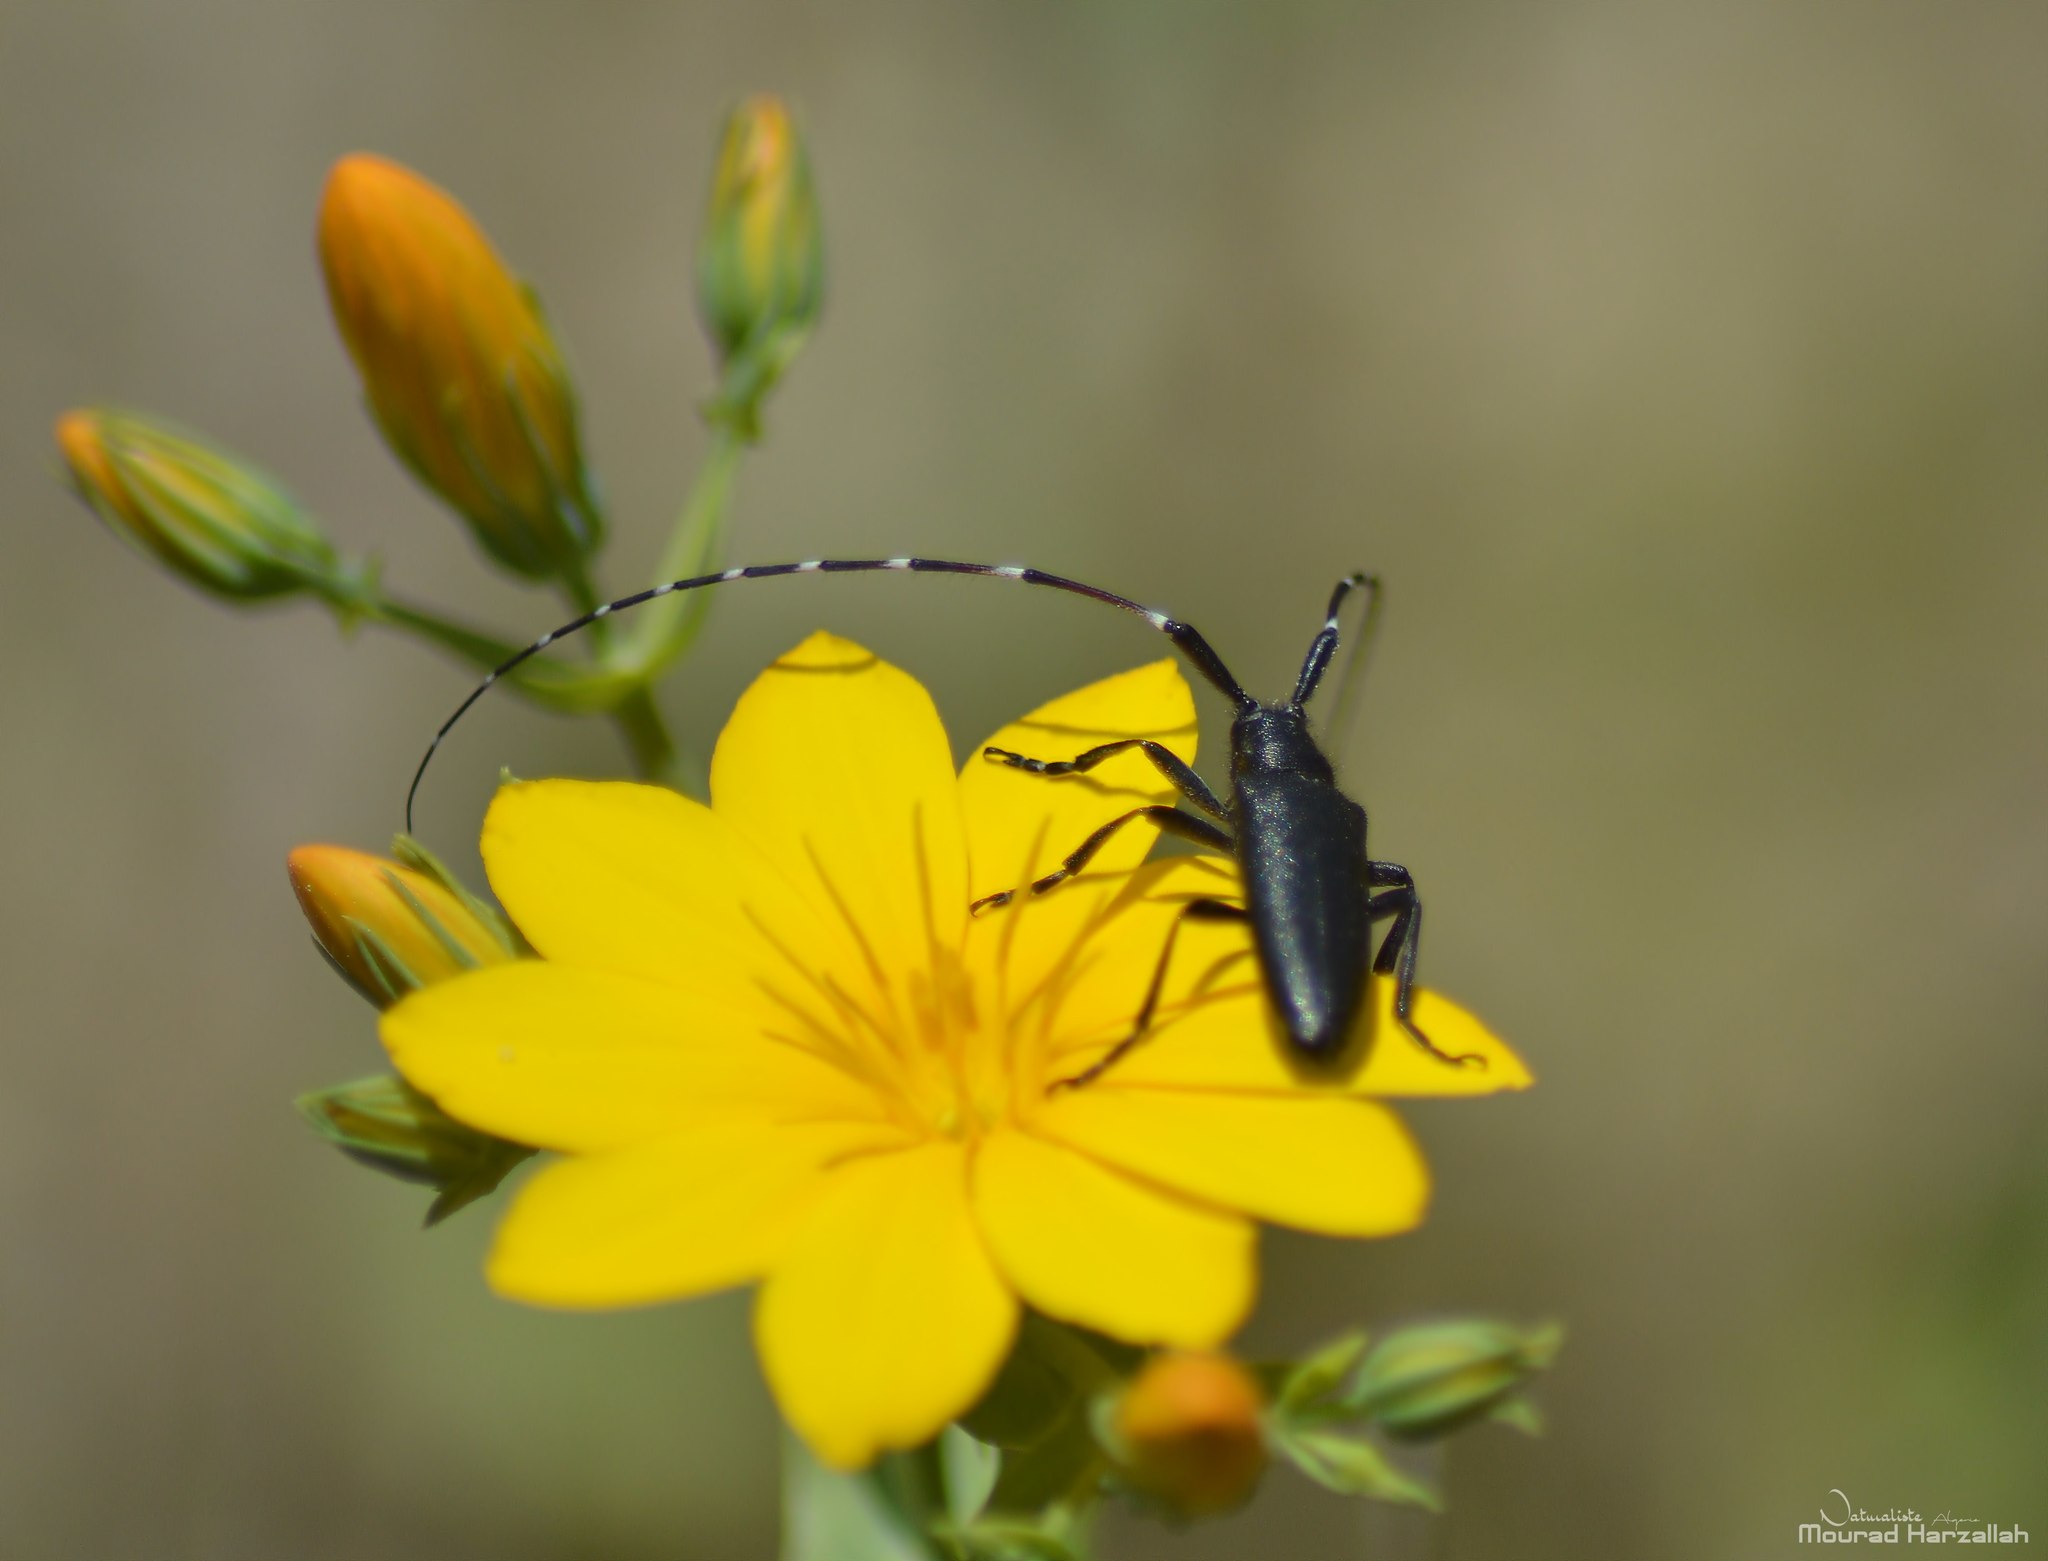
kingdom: Animalia
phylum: Arthropoda
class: Insecta
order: Coleoptera
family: Cerambycidae
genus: Agapanthia
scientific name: Agapanthia irrorata
